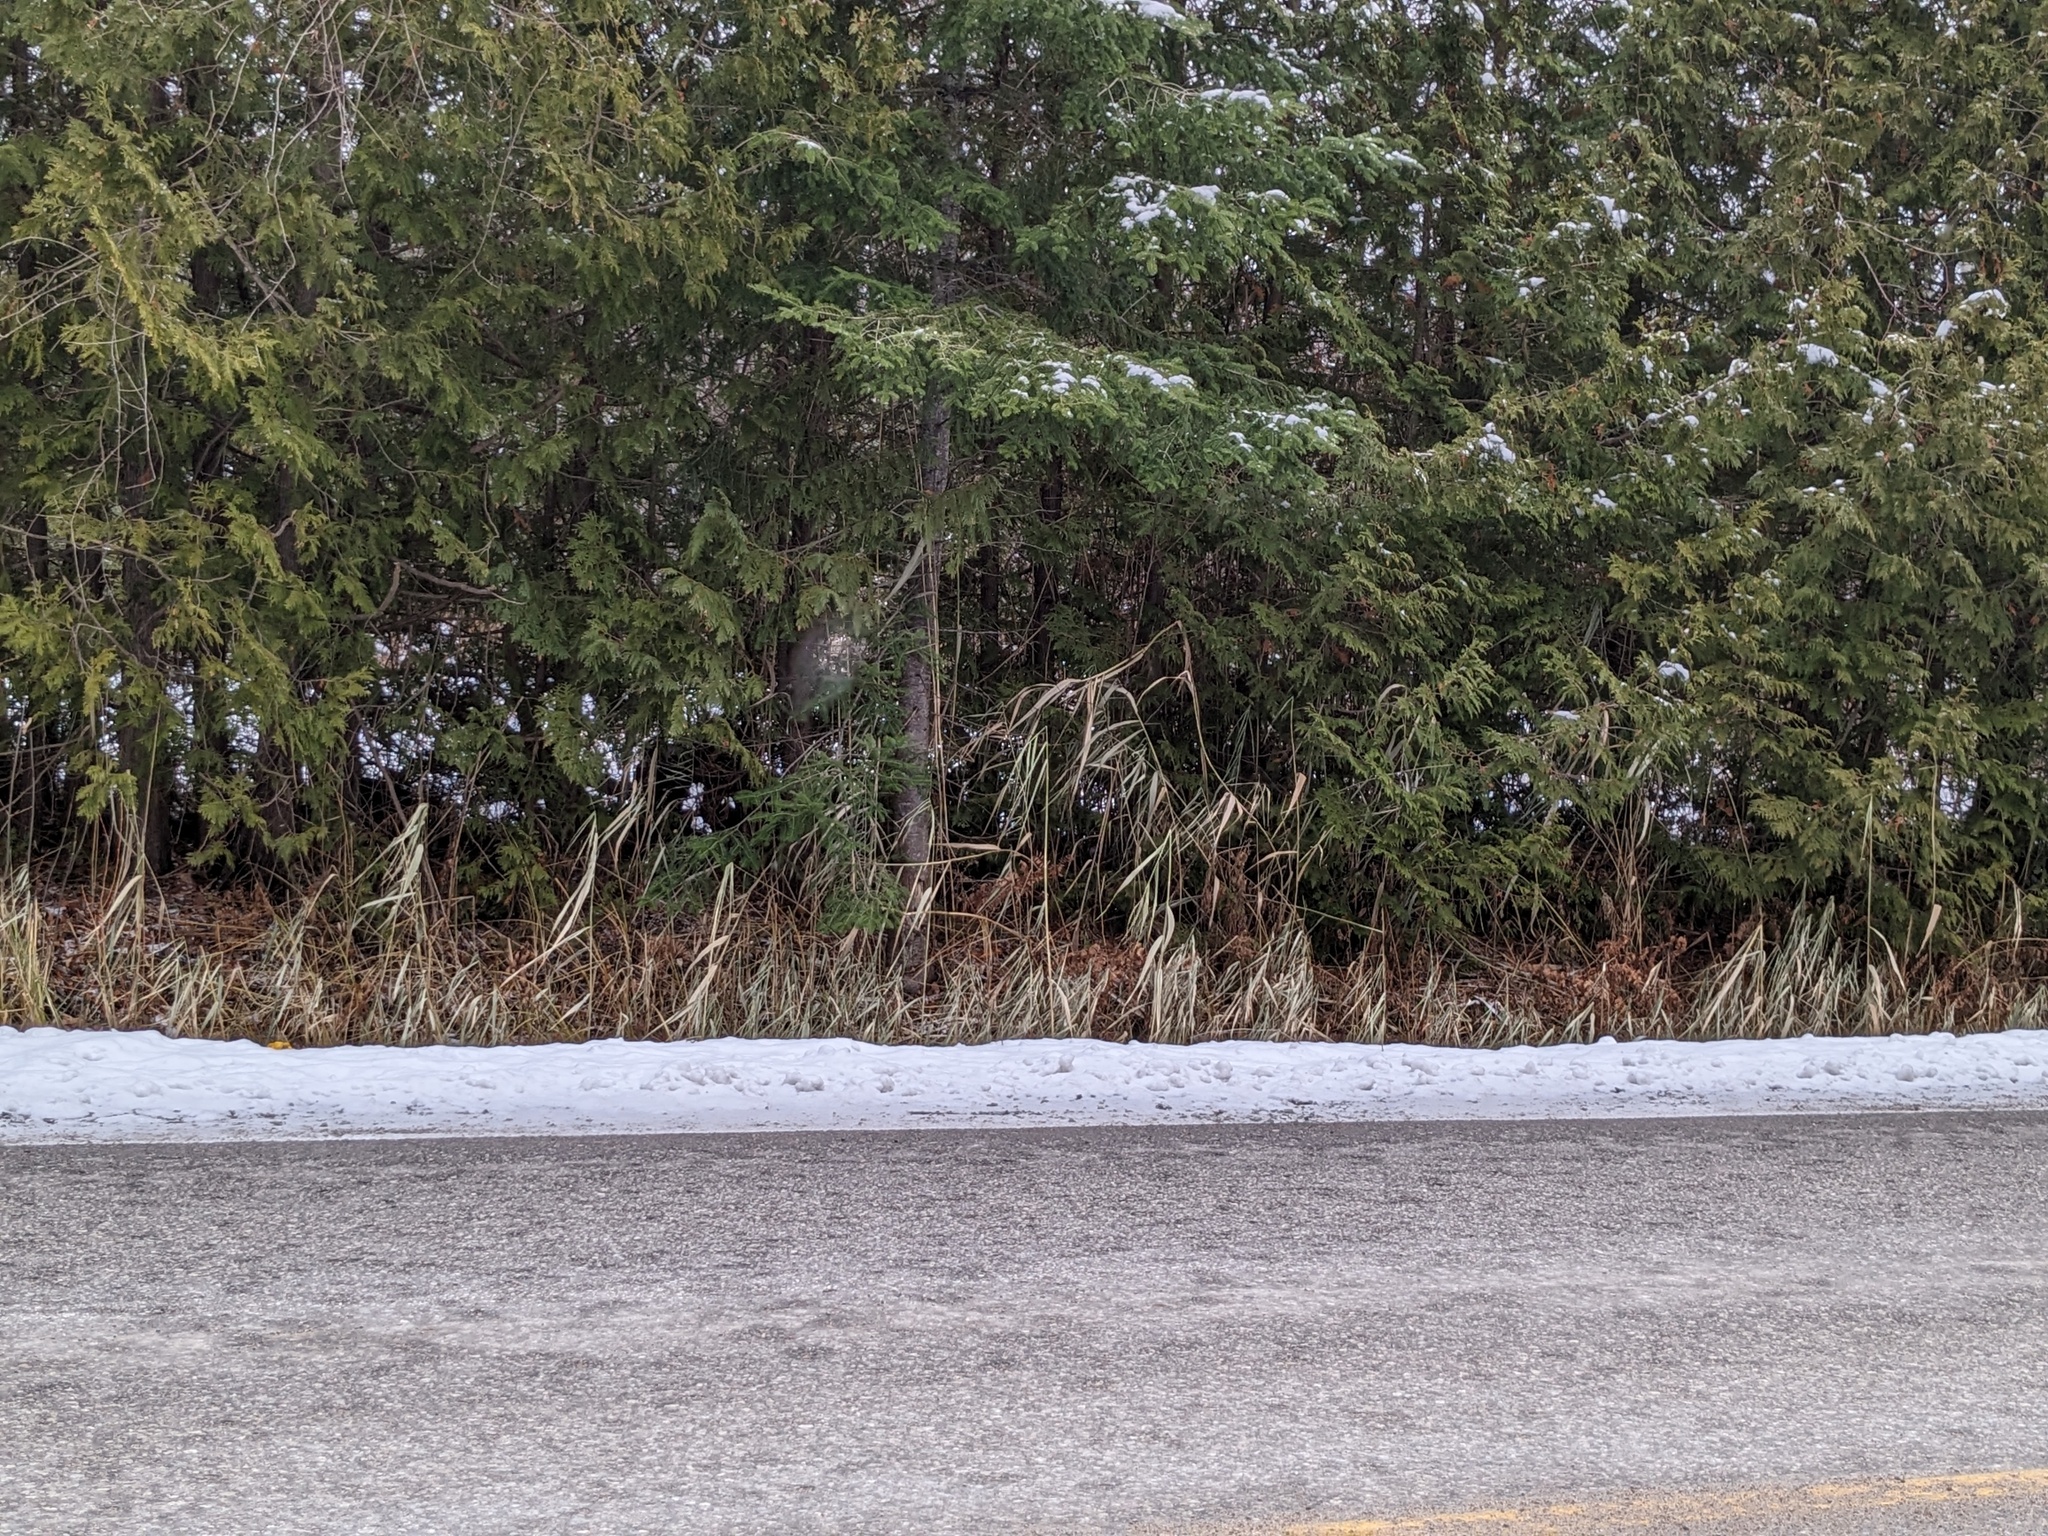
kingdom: Plantae
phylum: Tracheophyta
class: Liliopsida
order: Poales
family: Poaceae
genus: Phragmites
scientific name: Phragmites australis
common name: Common reed
